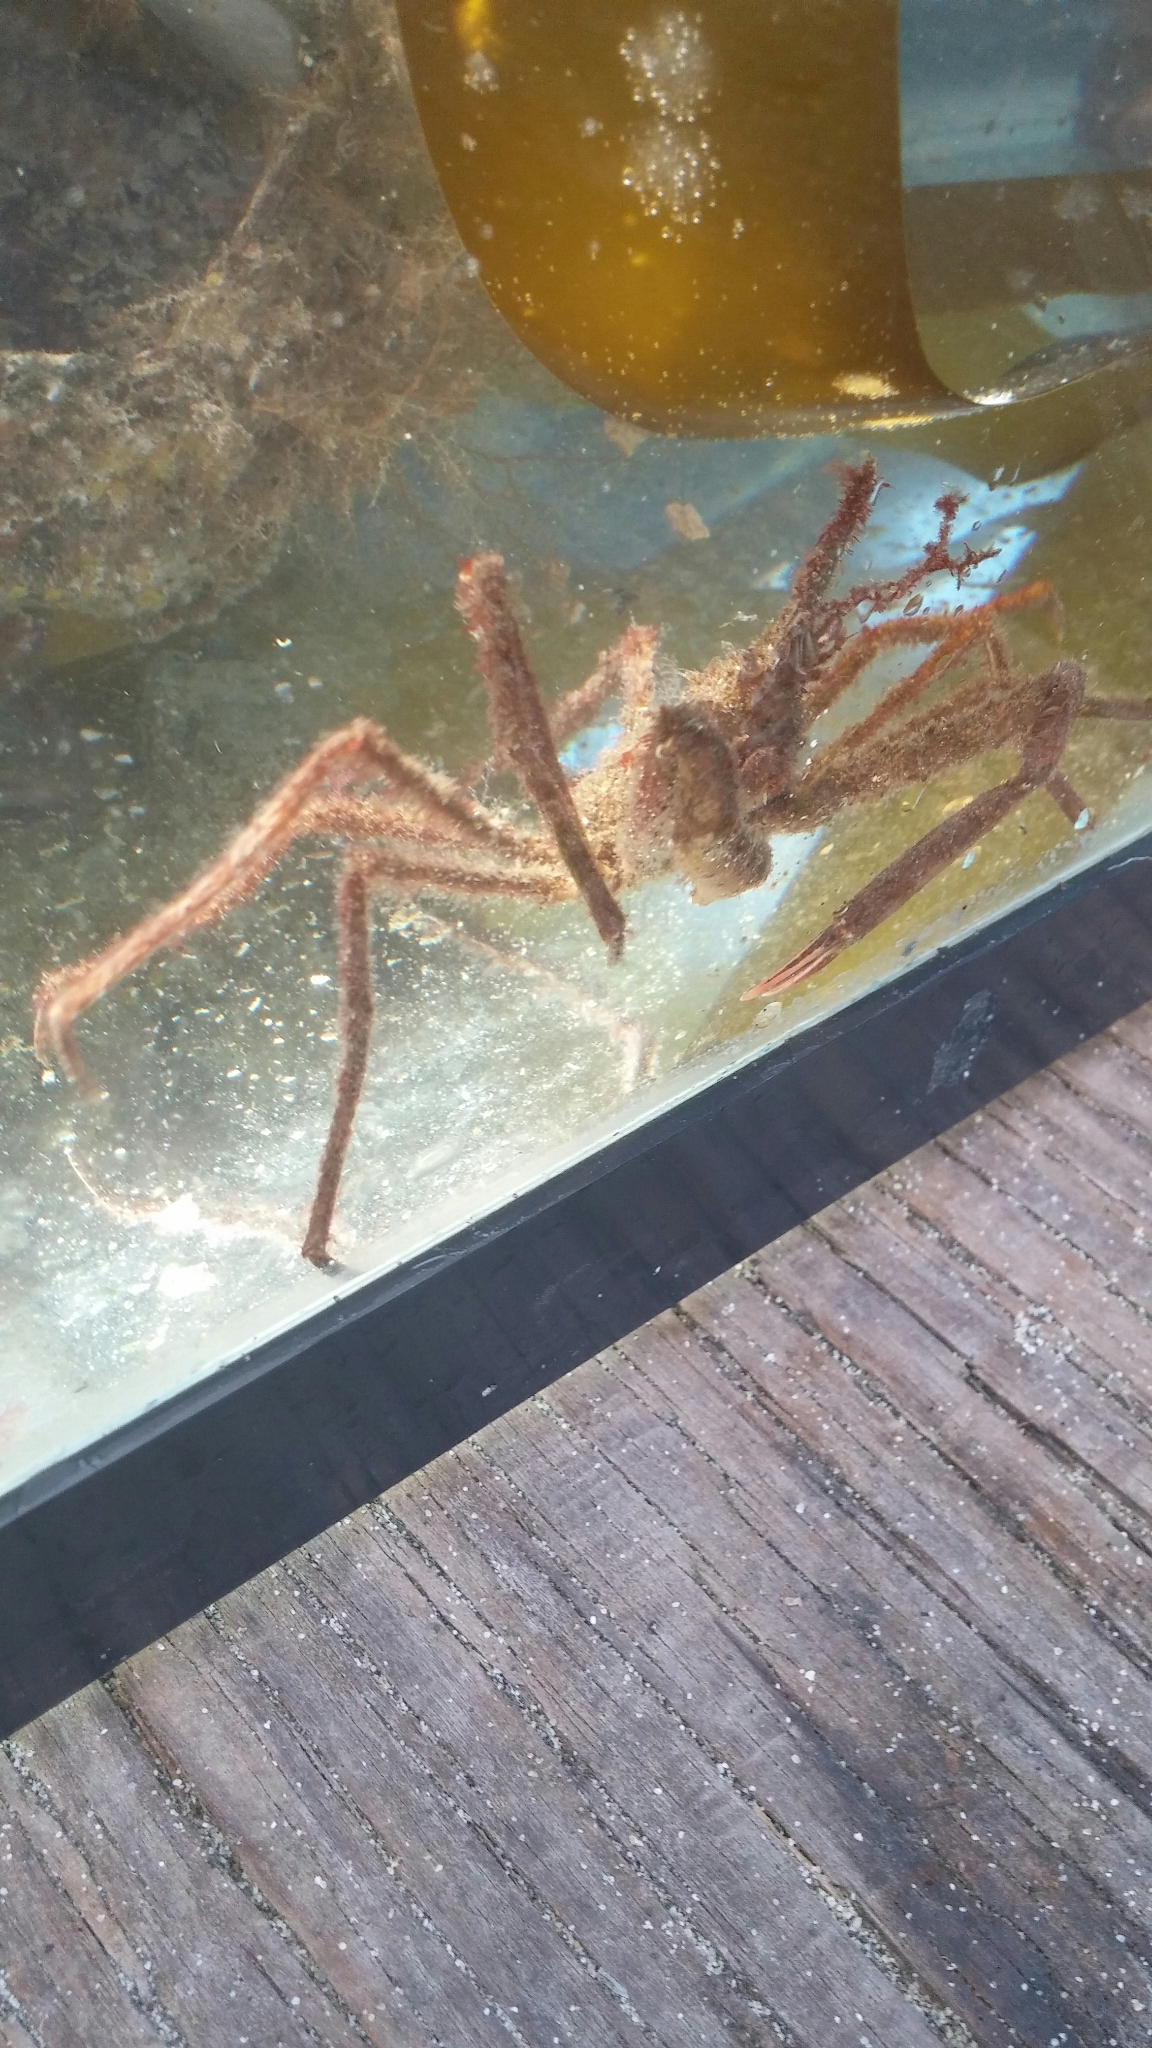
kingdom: Animalia
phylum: Arthropoda
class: Malacostraca
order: Decapoda
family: Oregoniidae
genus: Oregonia
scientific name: Oregonia gracilis
